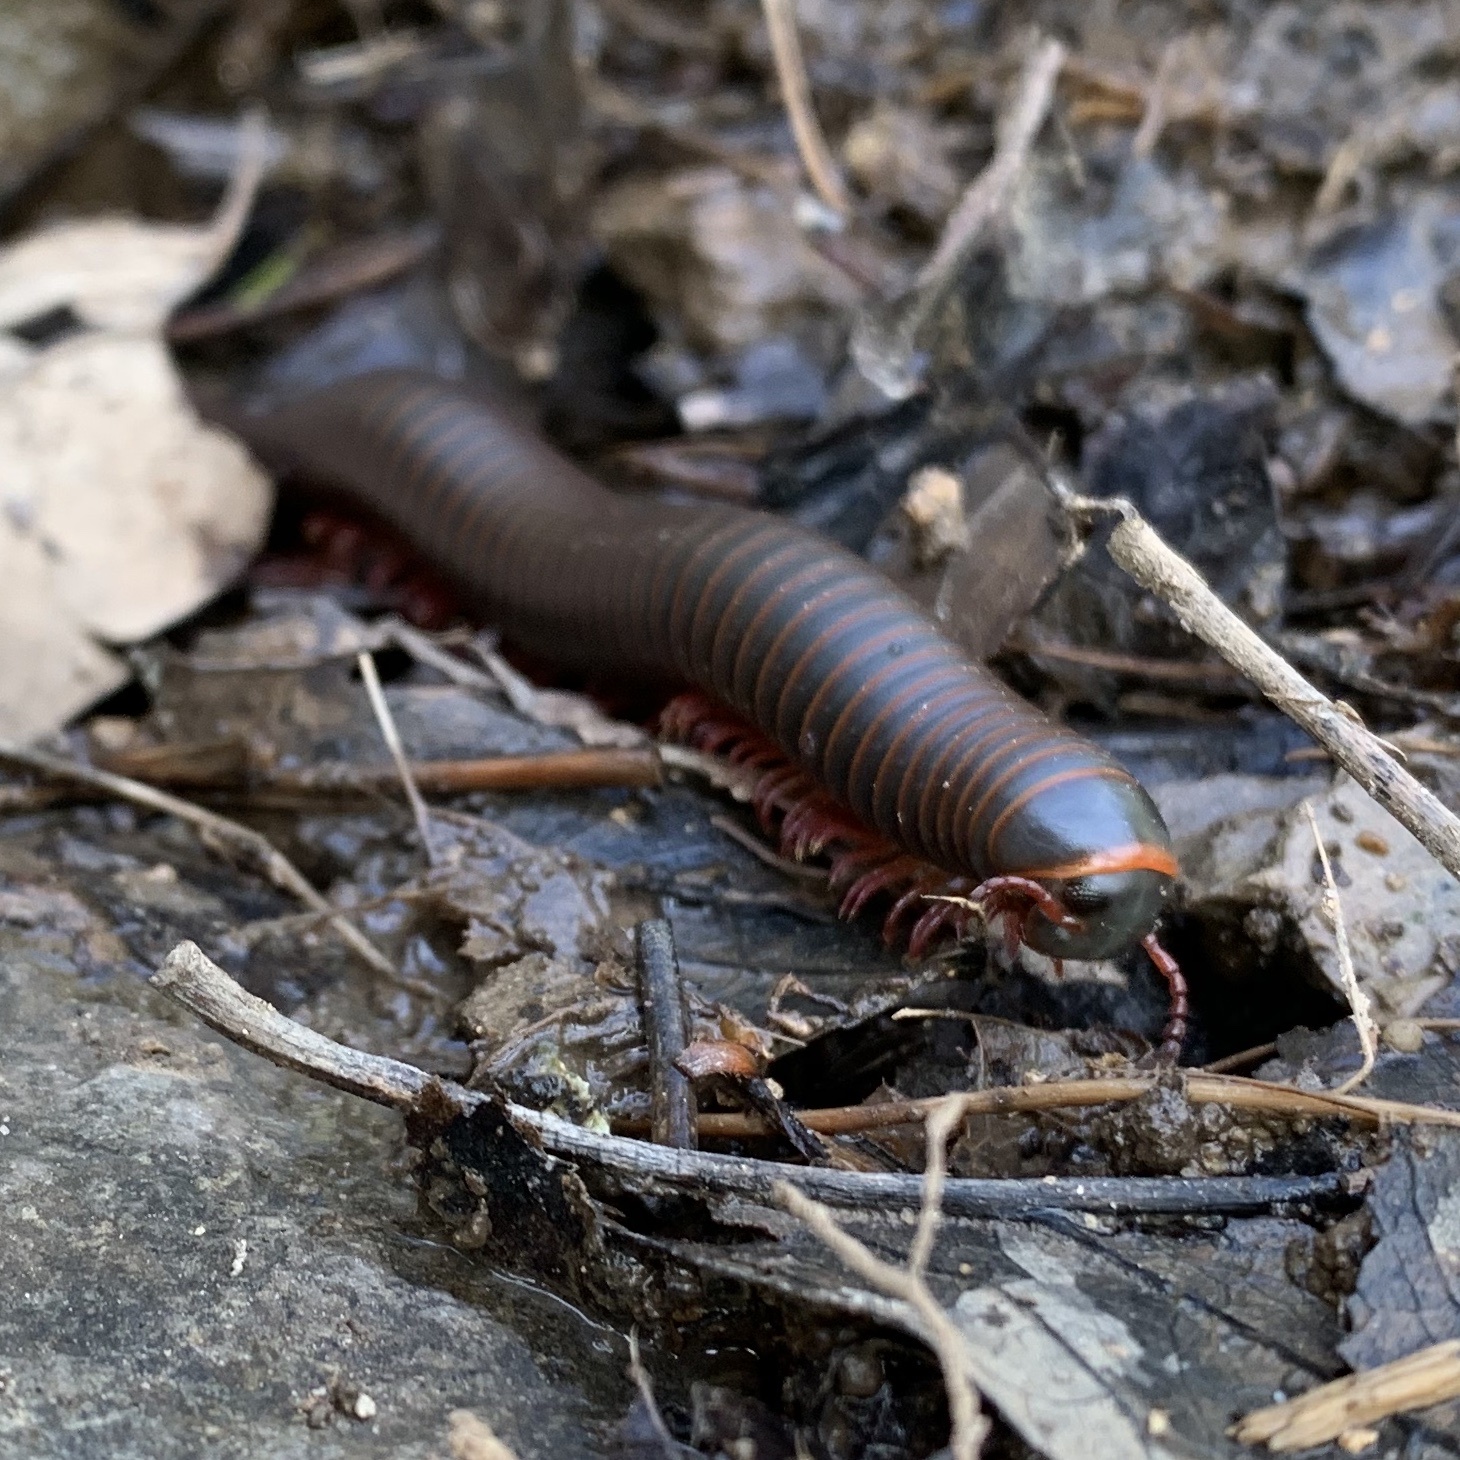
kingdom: Animalia
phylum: Arthropoda
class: Diplopoda
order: Spirobolida
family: Spirobolidae
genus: Narceus
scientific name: Narceus
